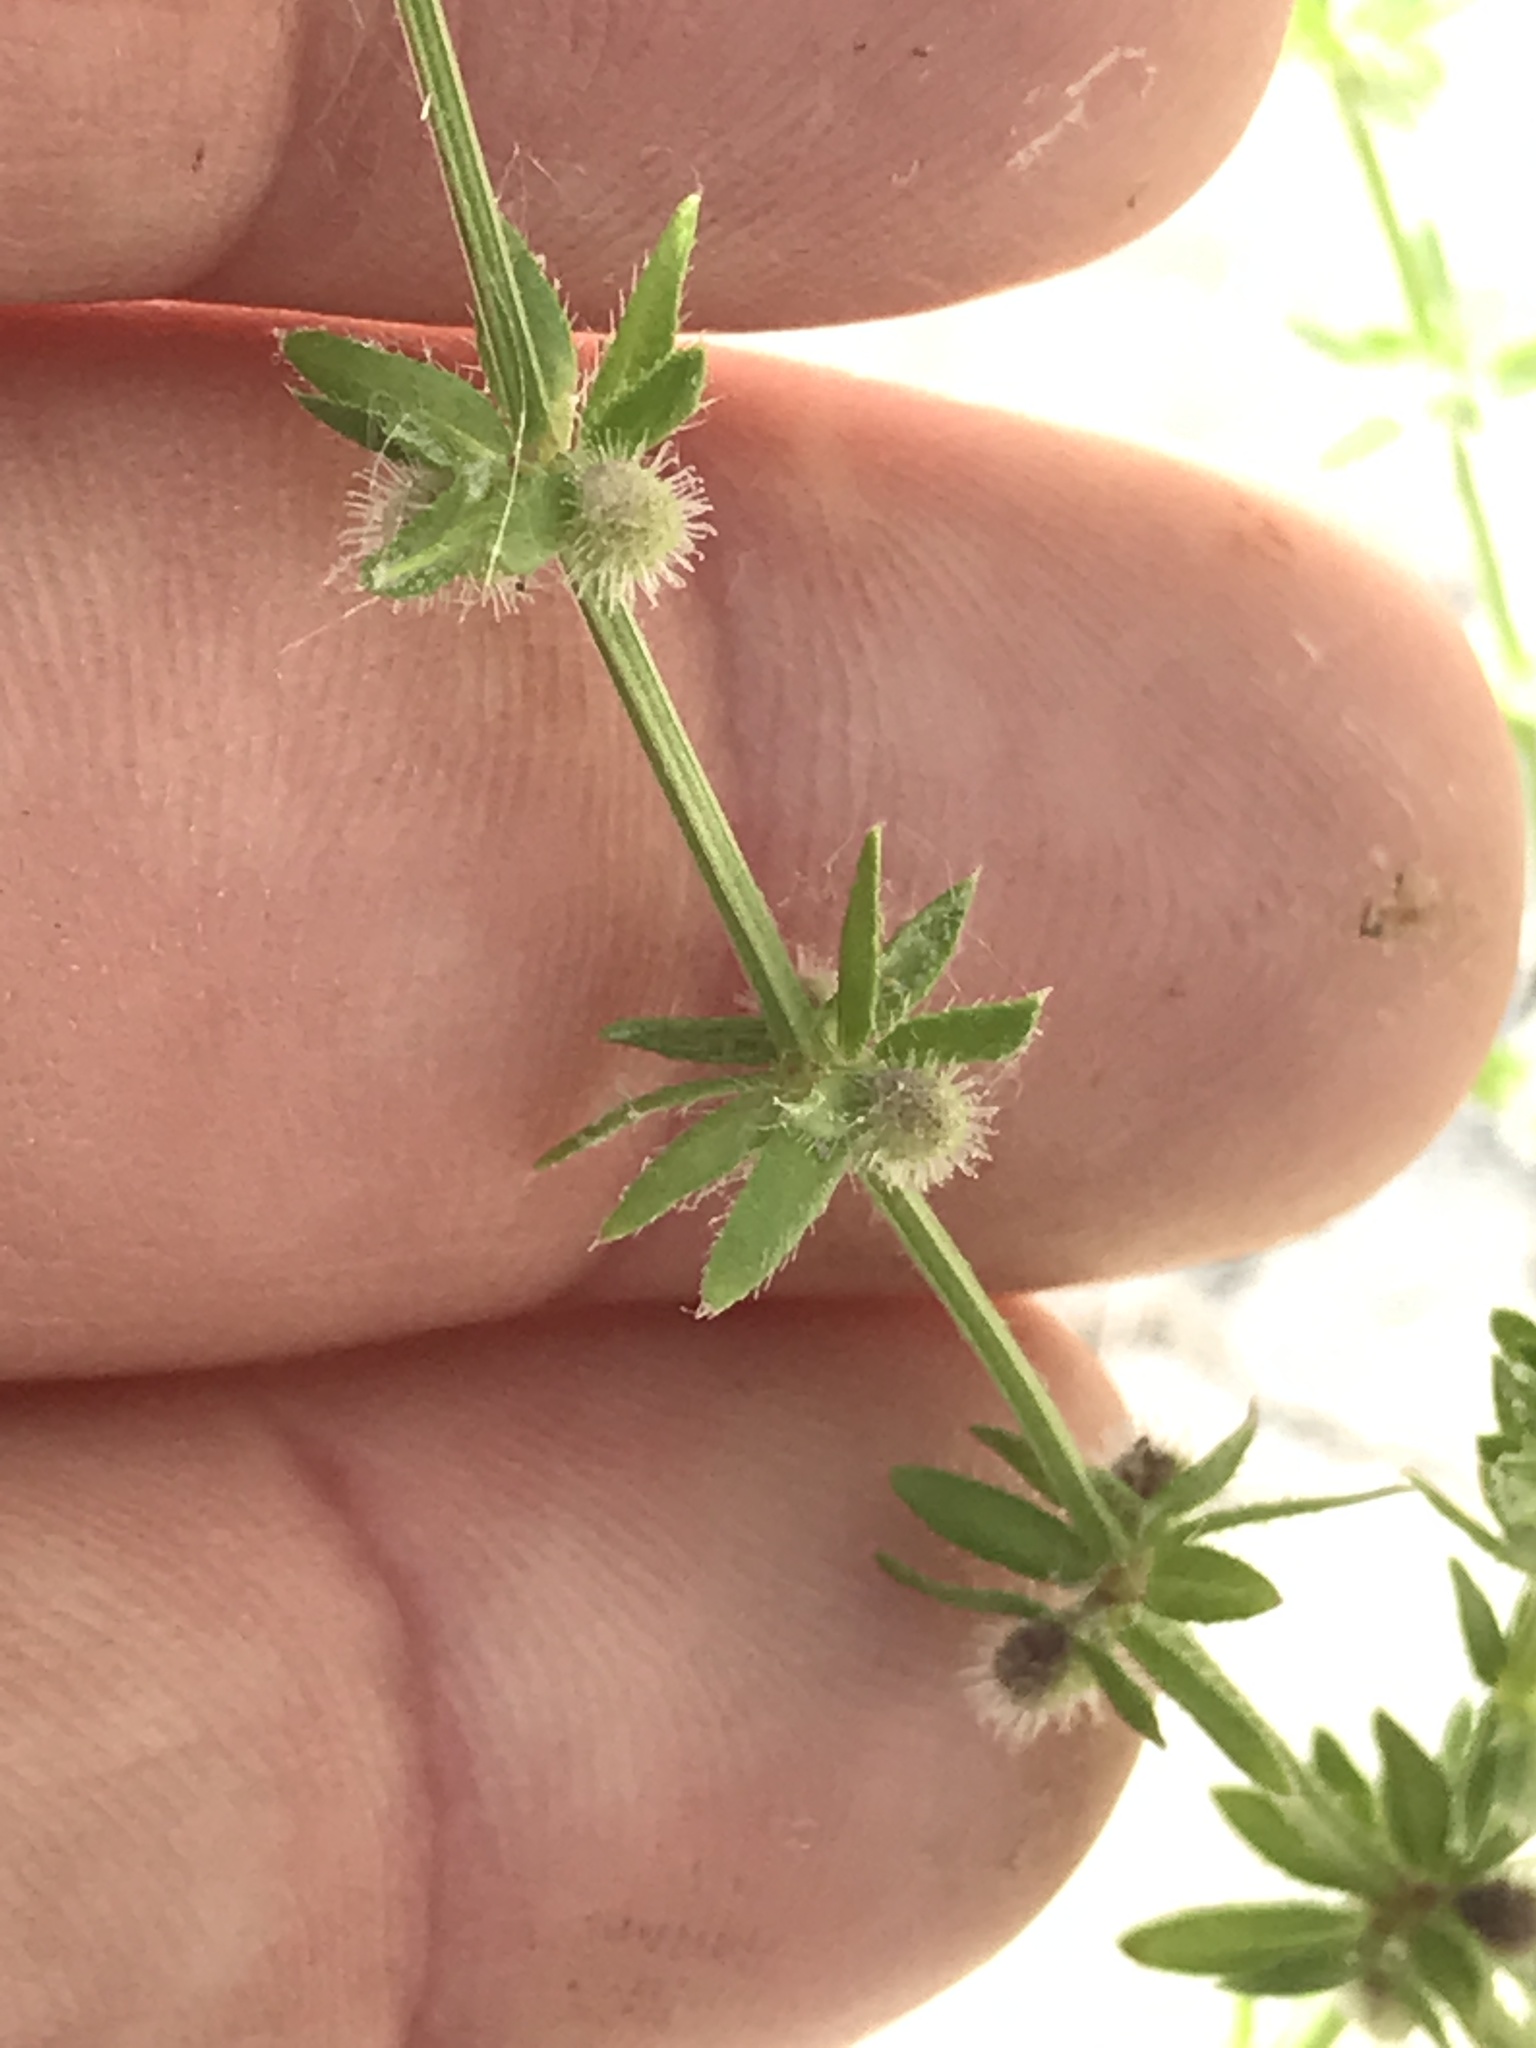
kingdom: Plantae
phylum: Tracheophyta
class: Magnoliopsida
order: Gentianales
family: Rubiaceae
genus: Galium
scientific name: Galium virgatum
